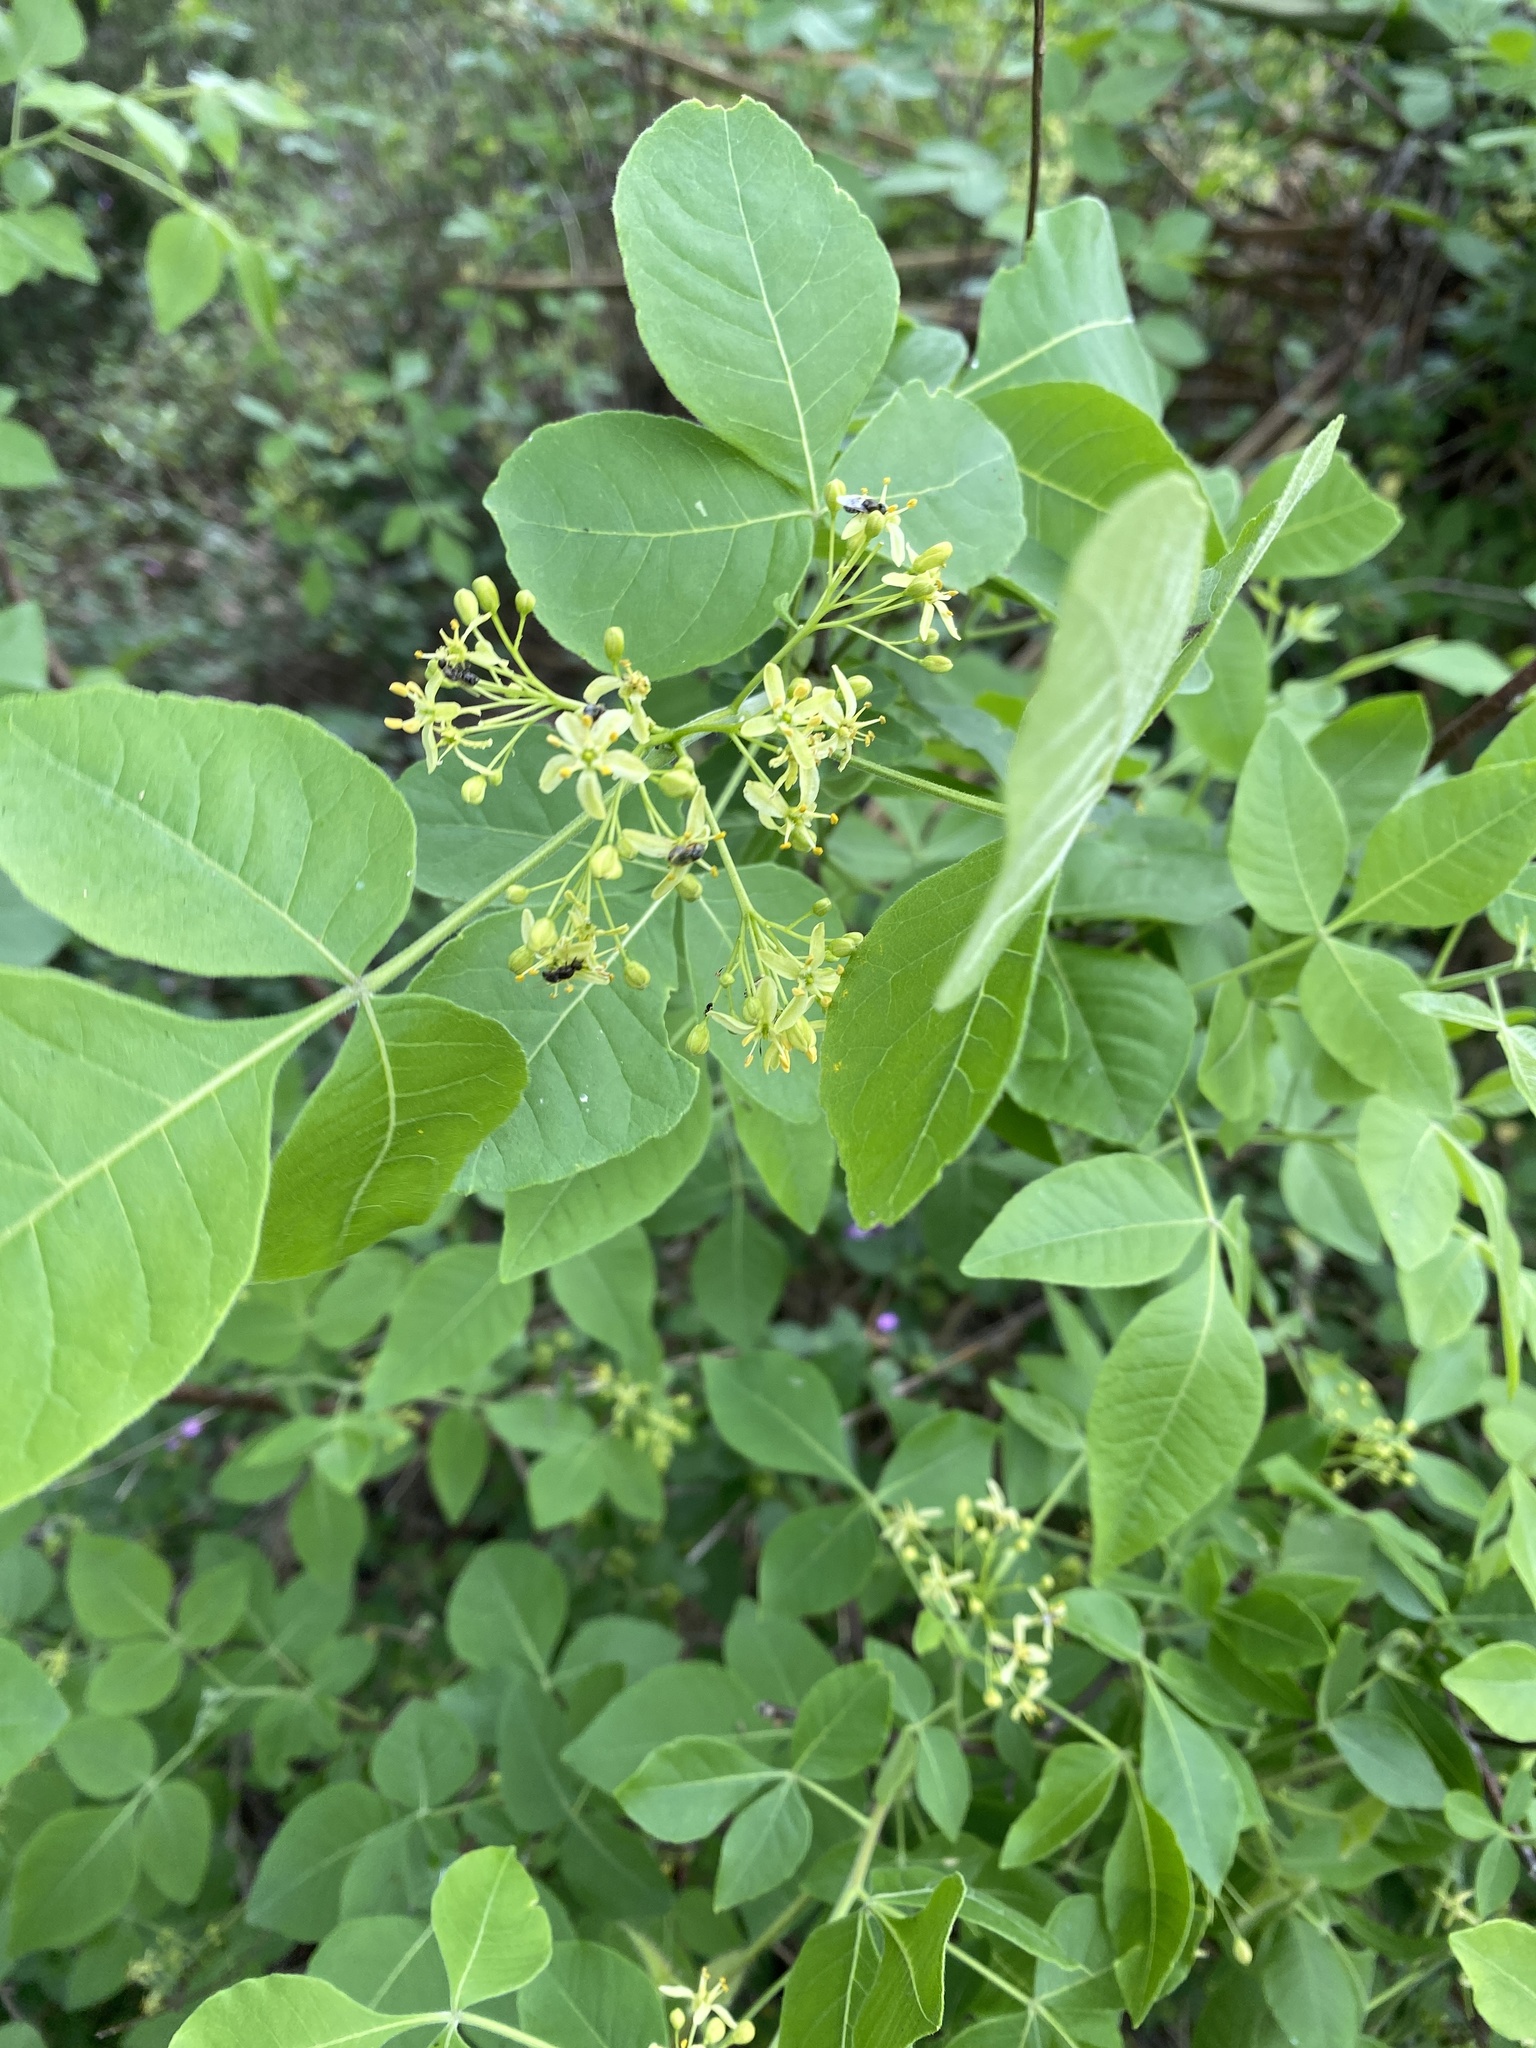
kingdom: Plantae
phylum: Tracheophyta
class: Magnoliopsida
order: Sapindales
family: Rutaceae
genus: Ptelea
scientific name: Ptelea trifoliata
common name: Common hop-tree
